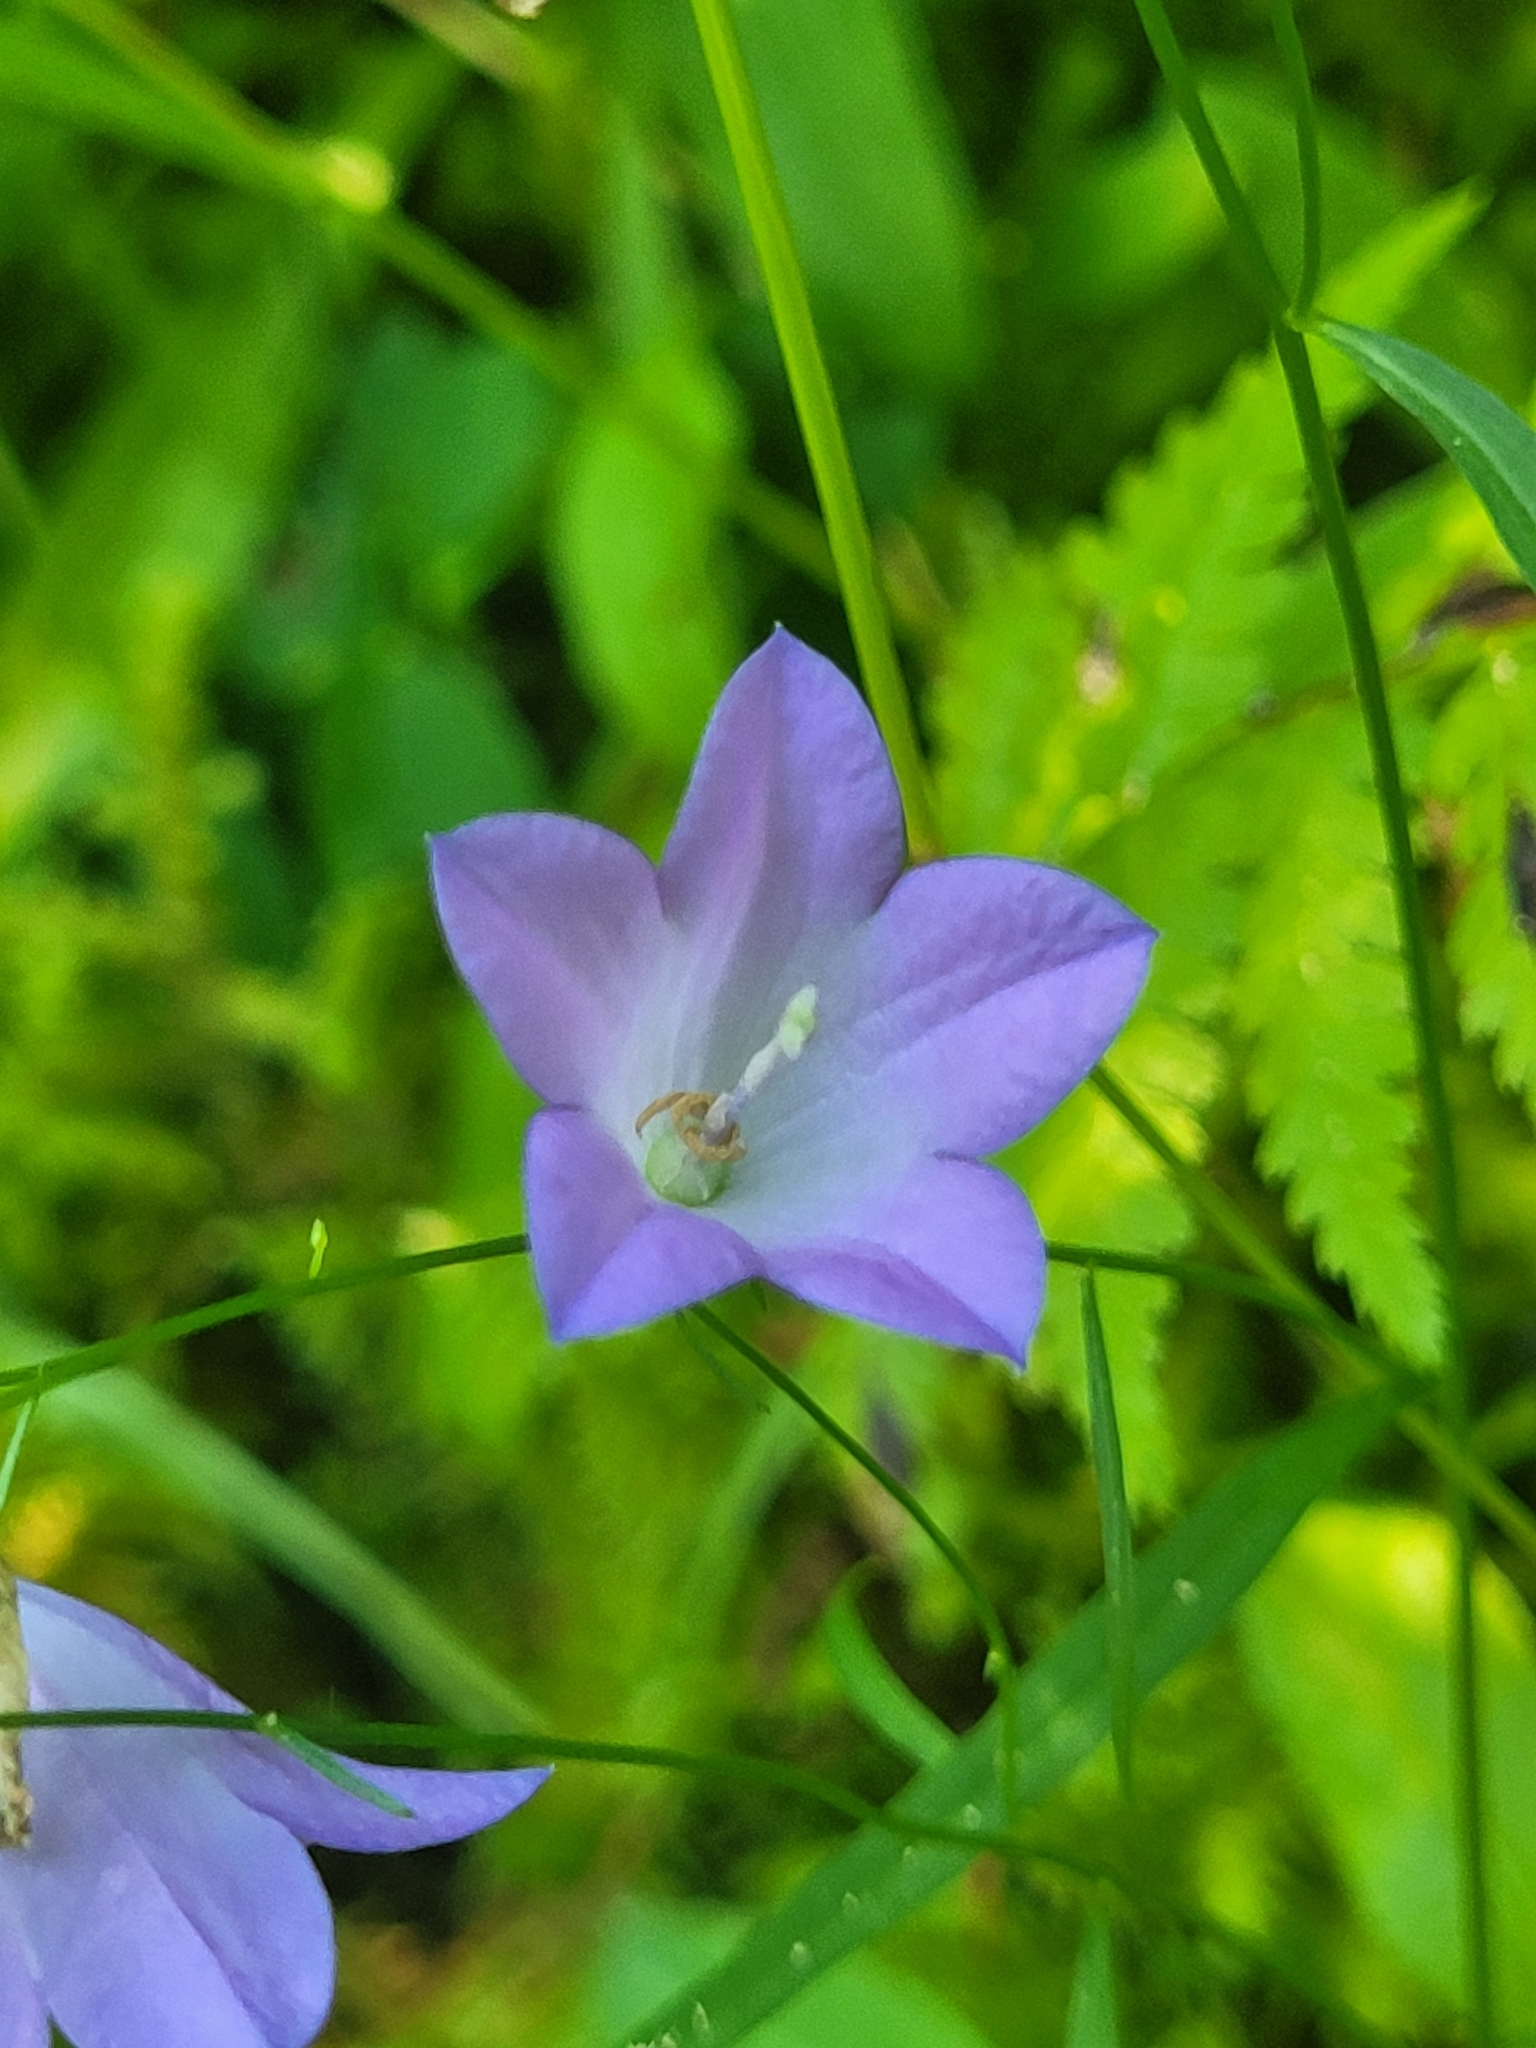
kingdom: Plantae
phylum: Tracheophyta
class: Magnoliopsida
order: Asterales
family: Campanulaceae
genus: Campanula
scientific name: Campanula alaskana
